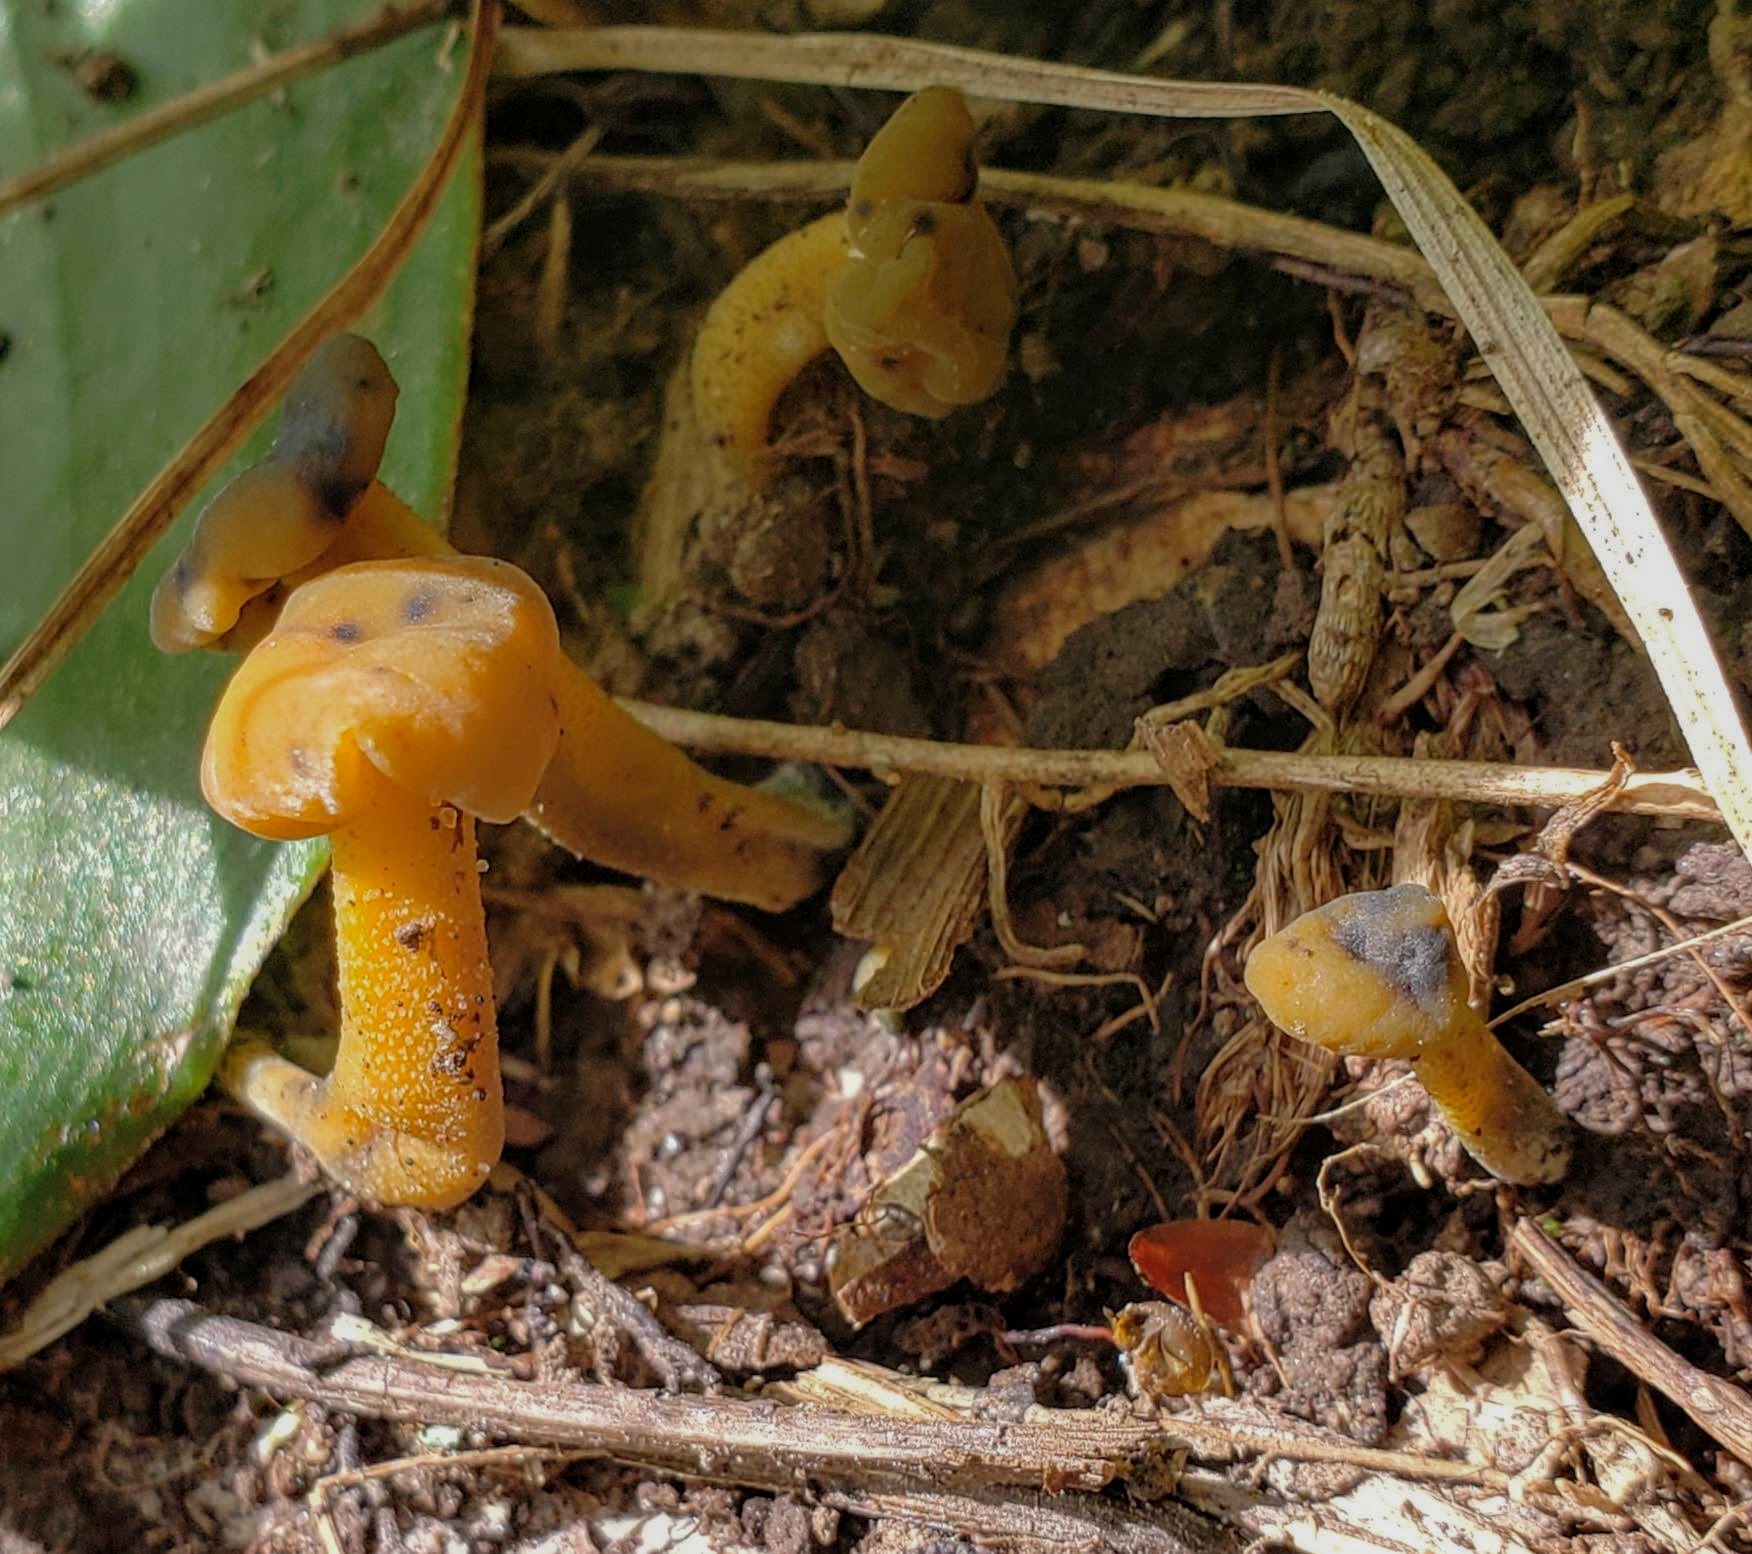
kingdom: Fungi
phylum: Ascomycota
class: Leotiomycetes
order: Leotiales
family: Leotiaceae
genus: Leotia
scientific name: Leotia lubrica
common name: Jellybaby
